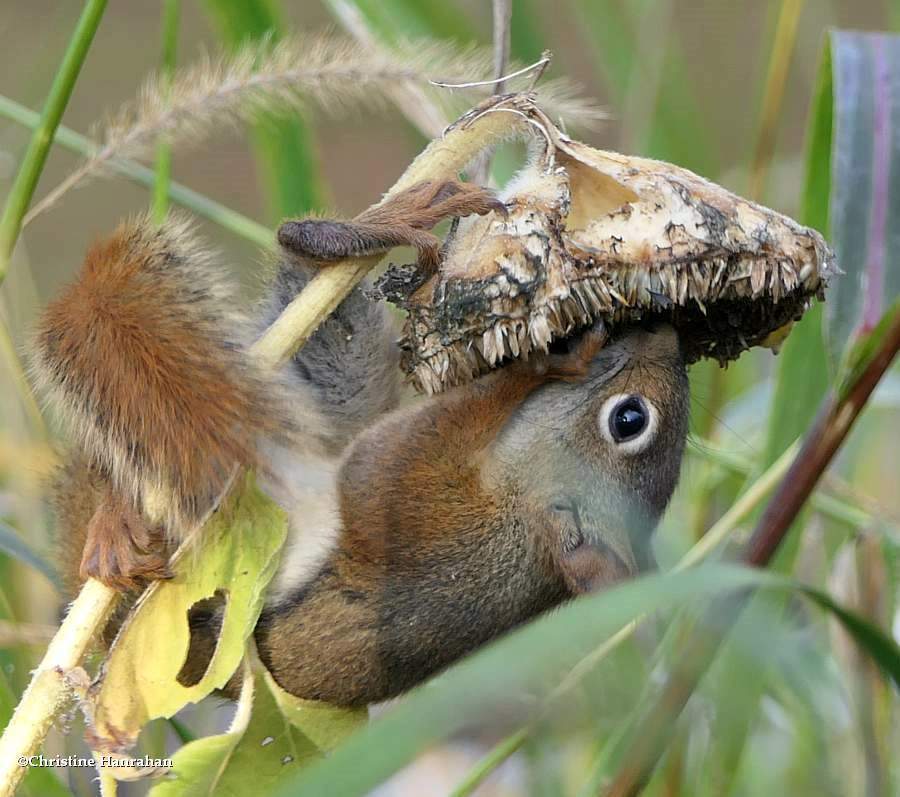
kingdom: Animalia
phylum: Chordata
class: Mammalia
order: Rodentia
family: Sciuridae
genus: Tamiasciurus
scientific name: Tamiasciurus hudsonicus
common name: Red squirrel
